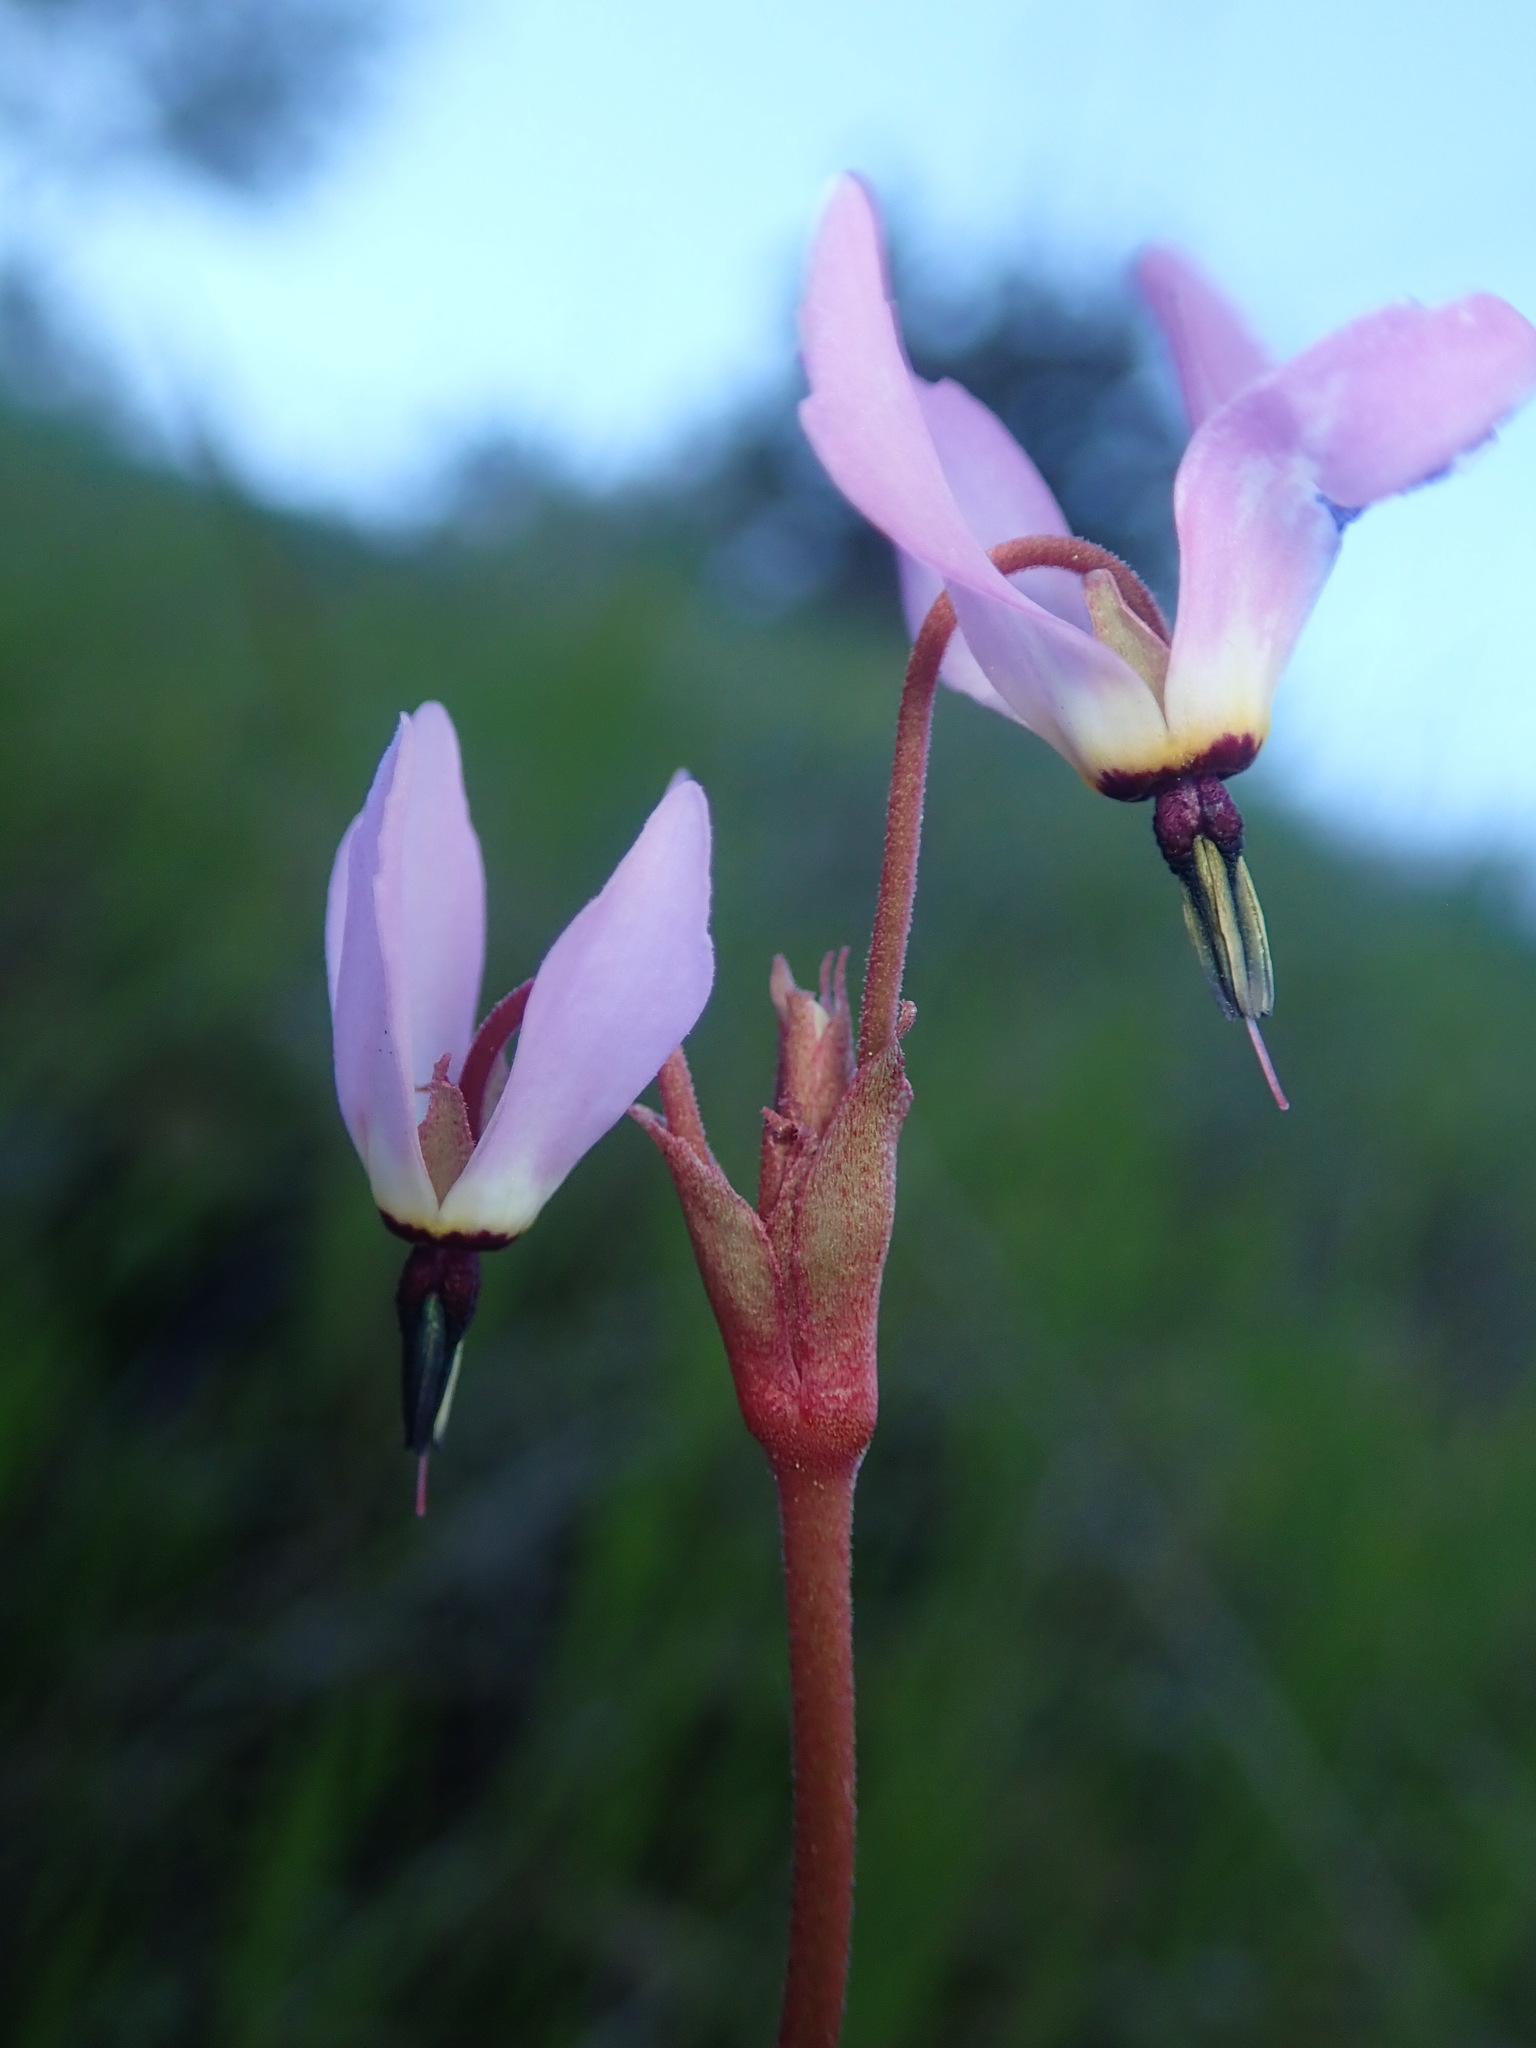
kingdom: Plantae
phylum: Tracheophyta
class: Magnoliopsida
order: Ericales
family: Primulaceae
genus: Dodecatheon
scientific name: Dodecatheon hendersonii
